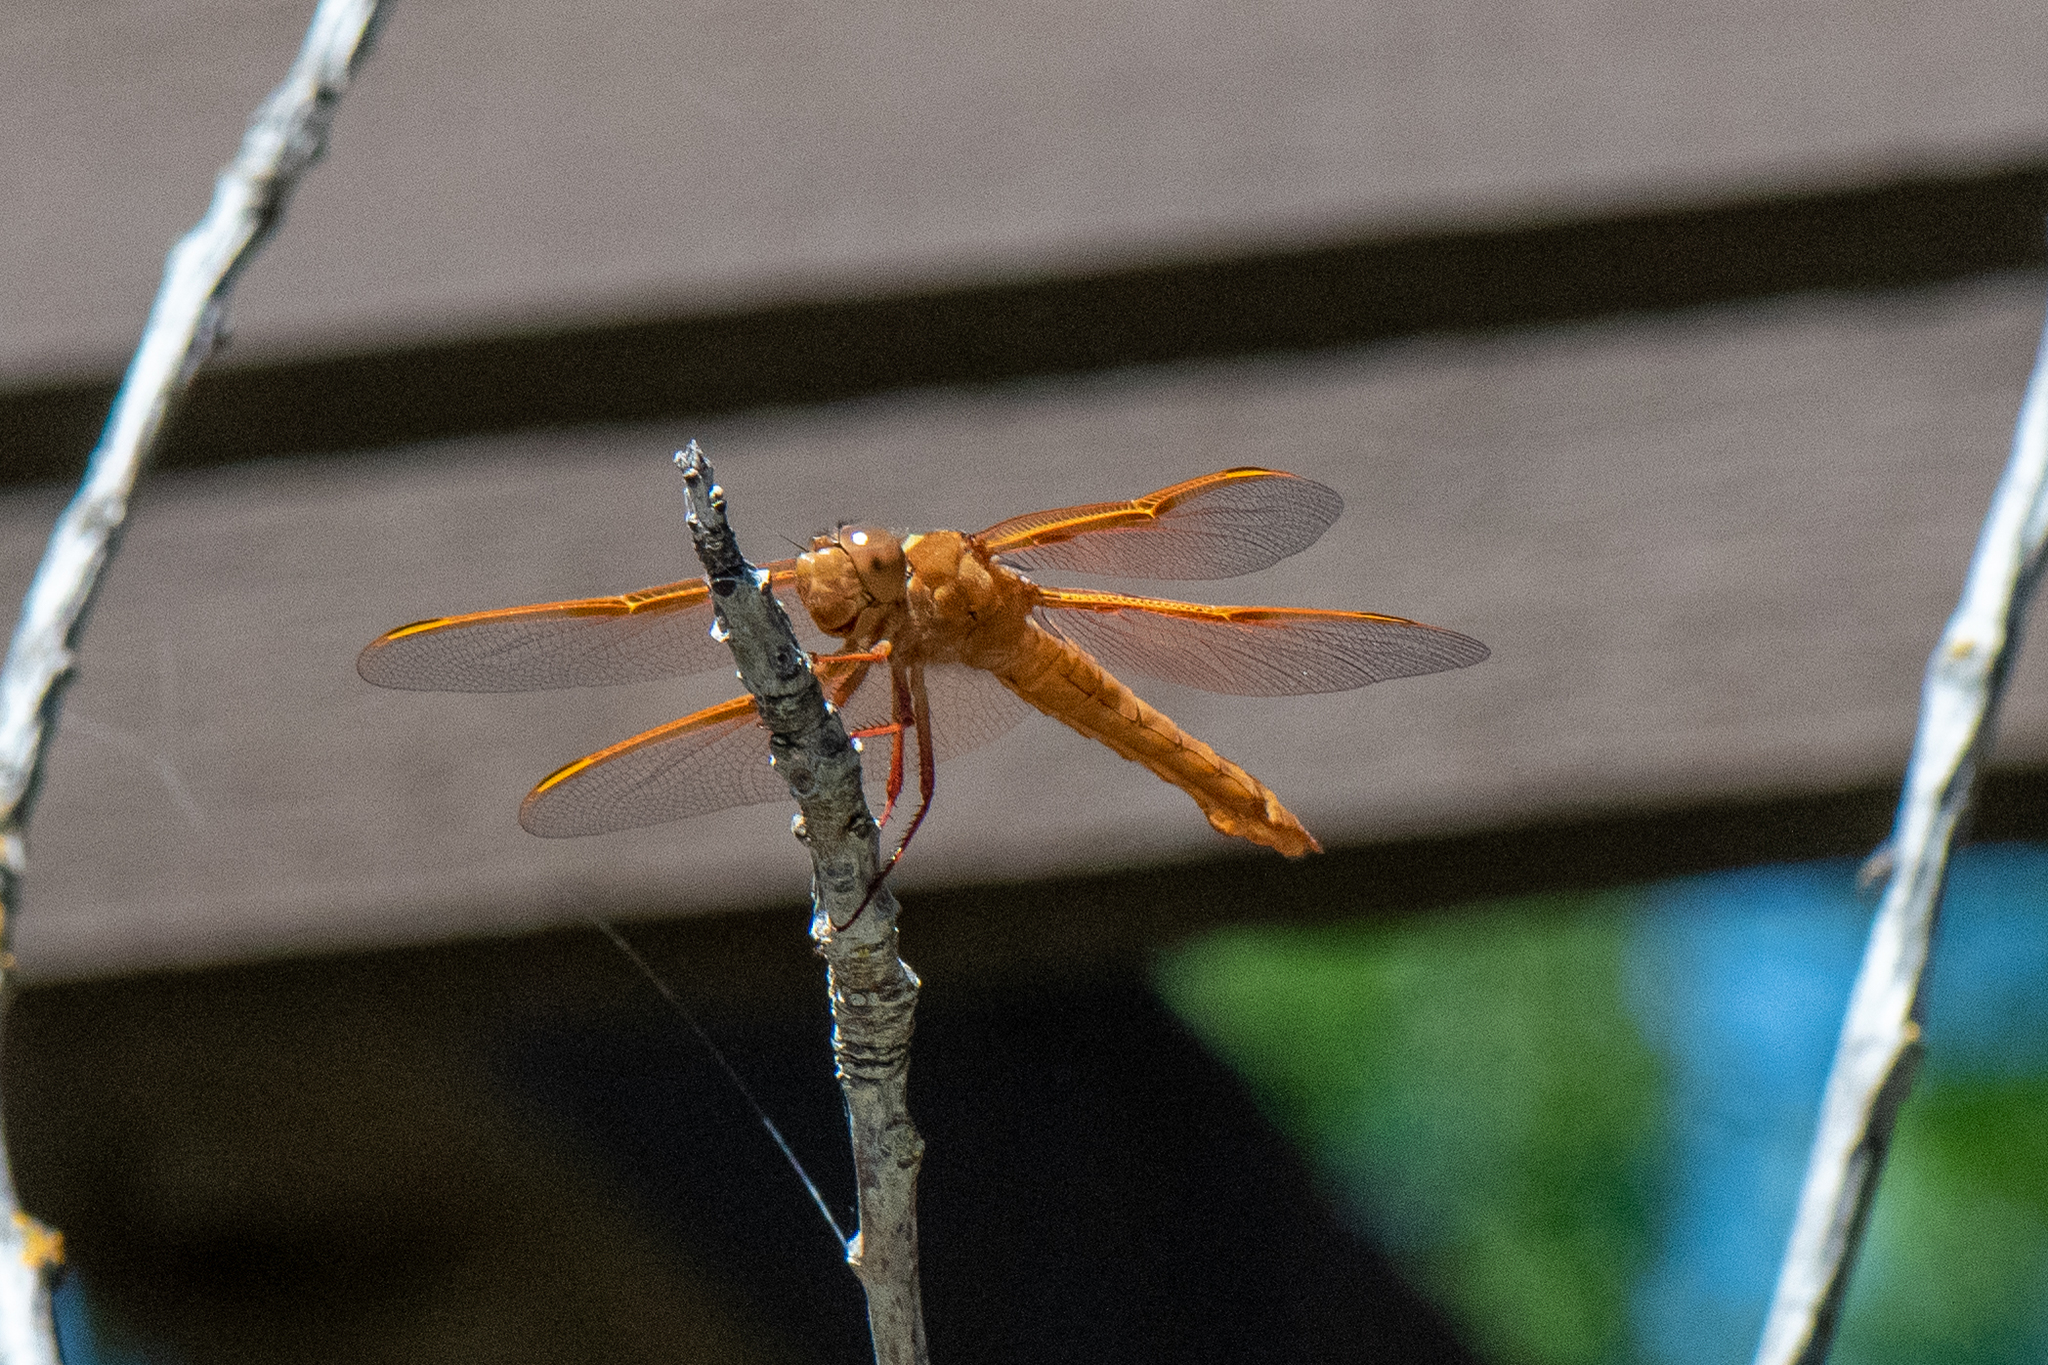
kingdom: Animalia
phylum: Arthropoda
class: Insecta
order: Odonata
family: Libellulidae
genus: Libellula
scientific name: Libellula saturata
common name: Flame skimmer
